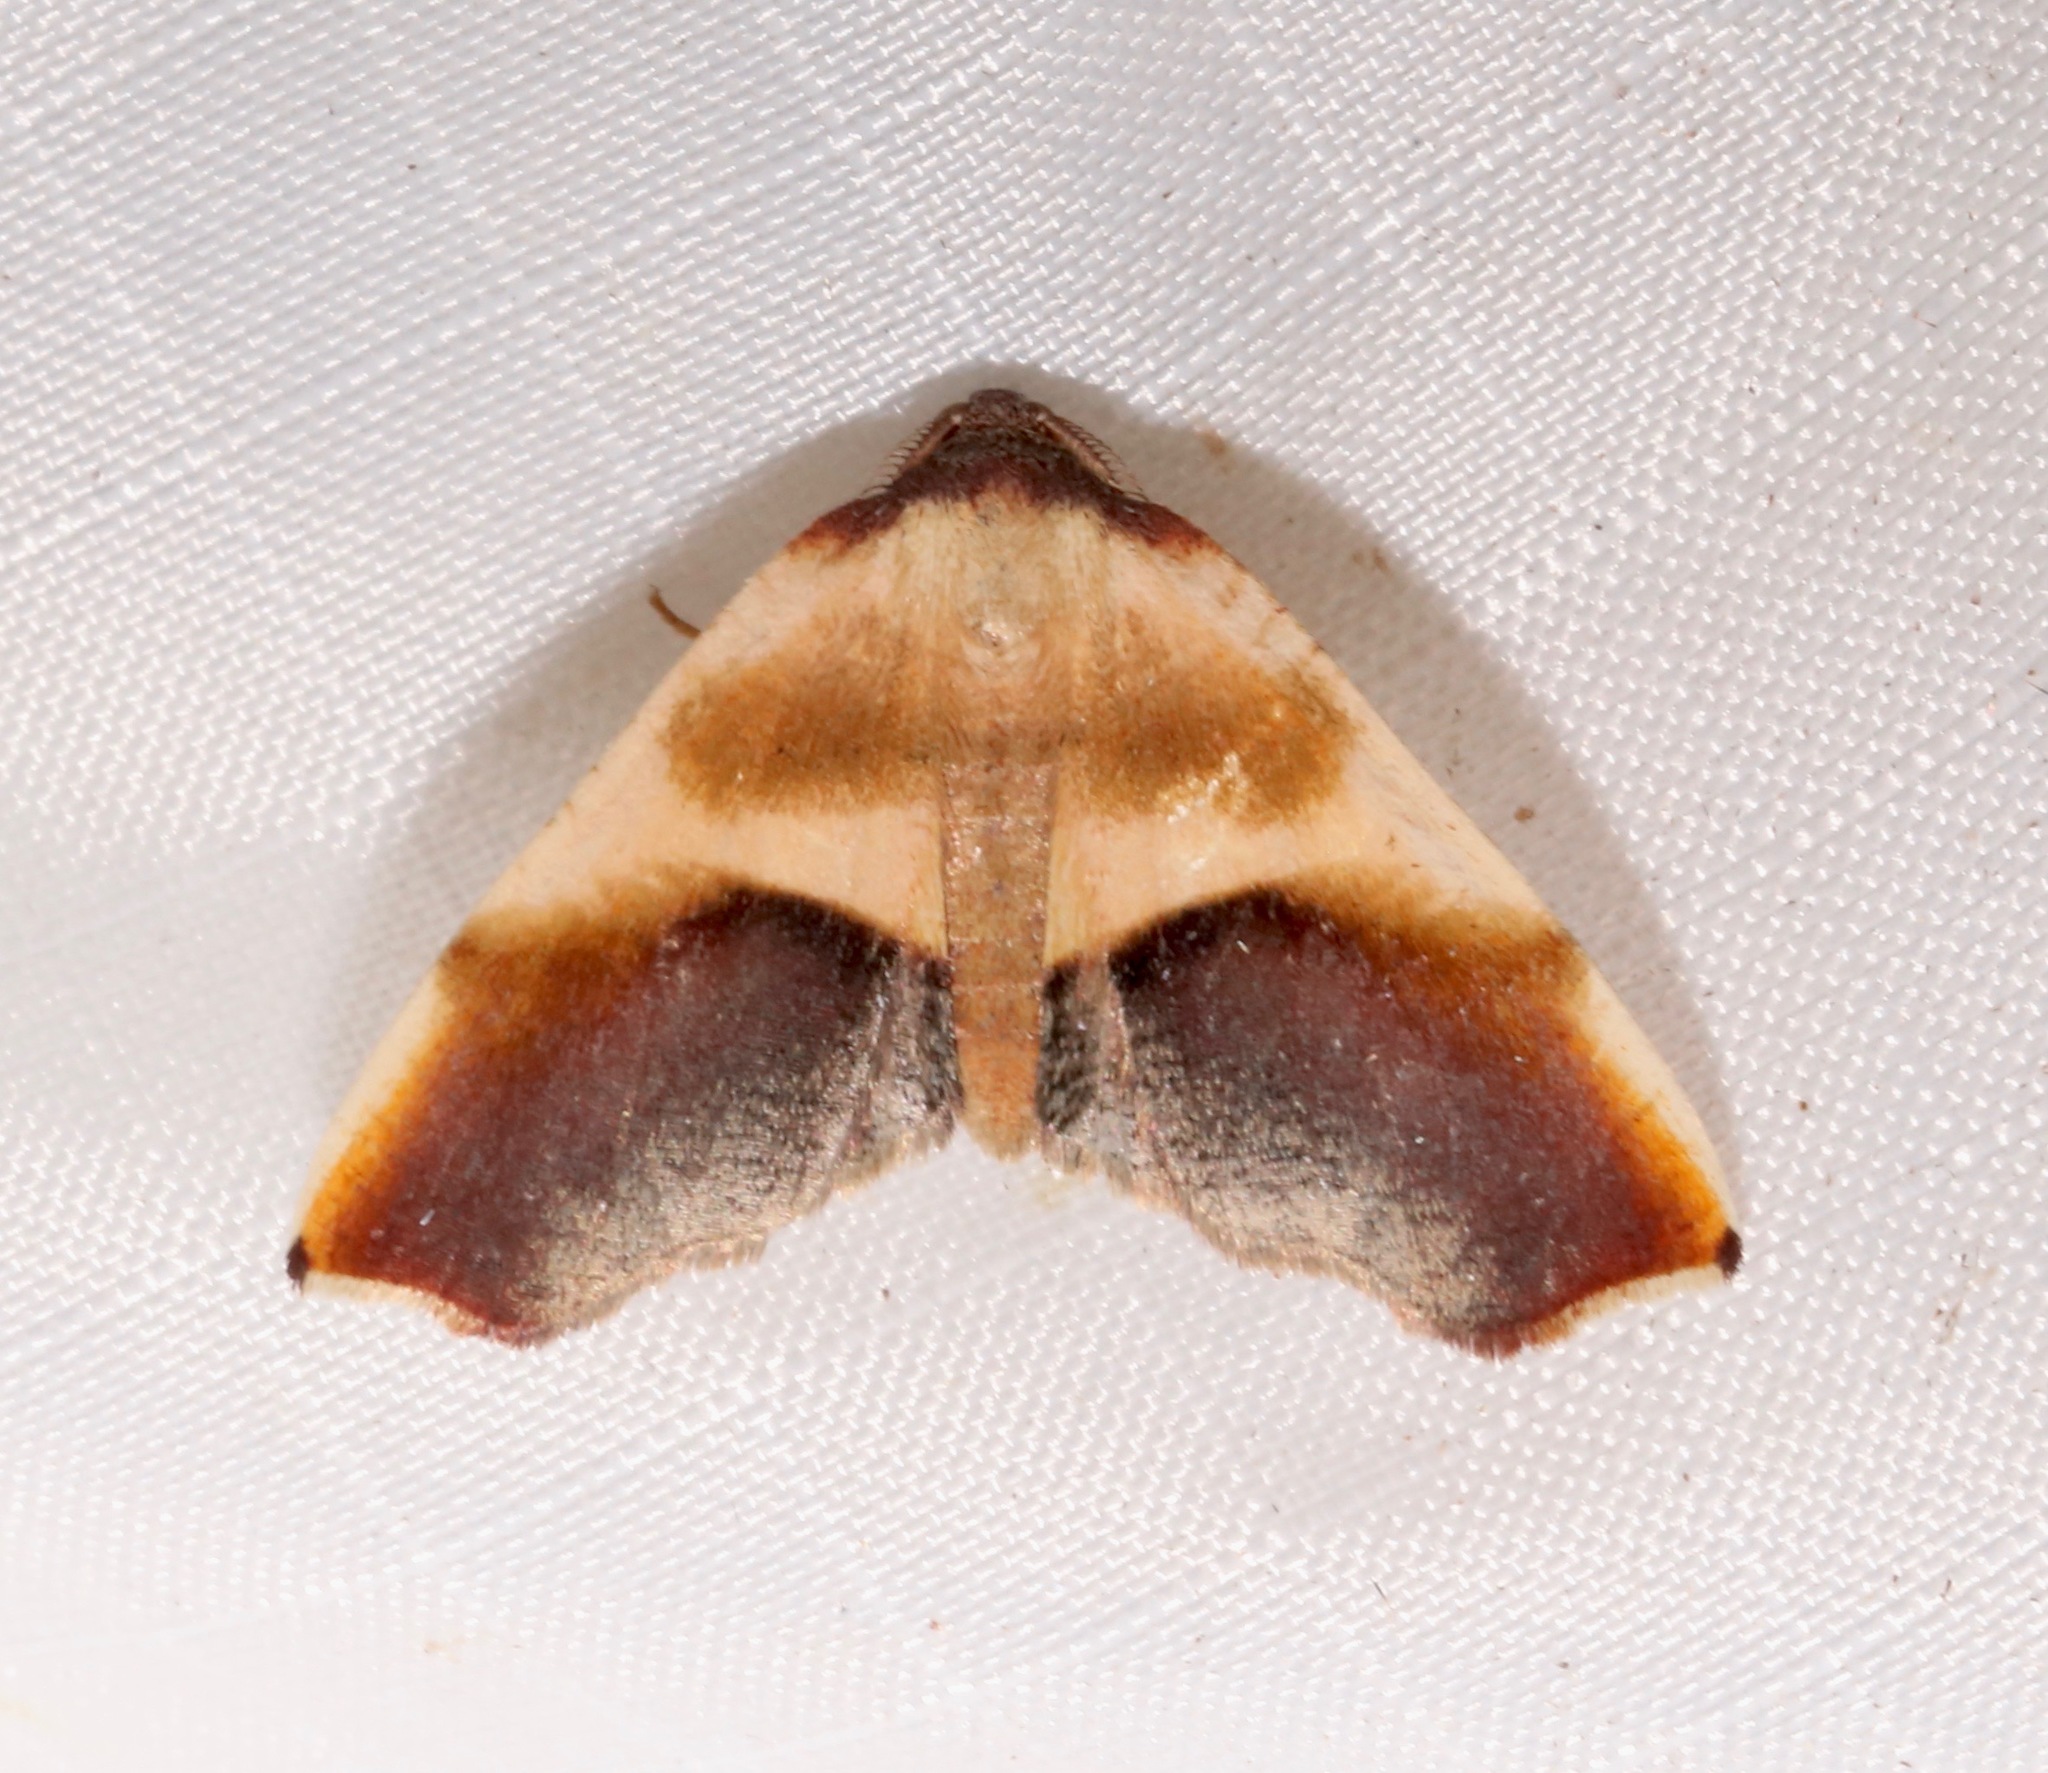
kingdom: Animalia
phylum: Arthropoda
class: Insecta
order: Lepidoptera
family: Geometridae
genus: Plagodis
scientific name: Plagodis kuetzingi
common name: Purple plagodis
